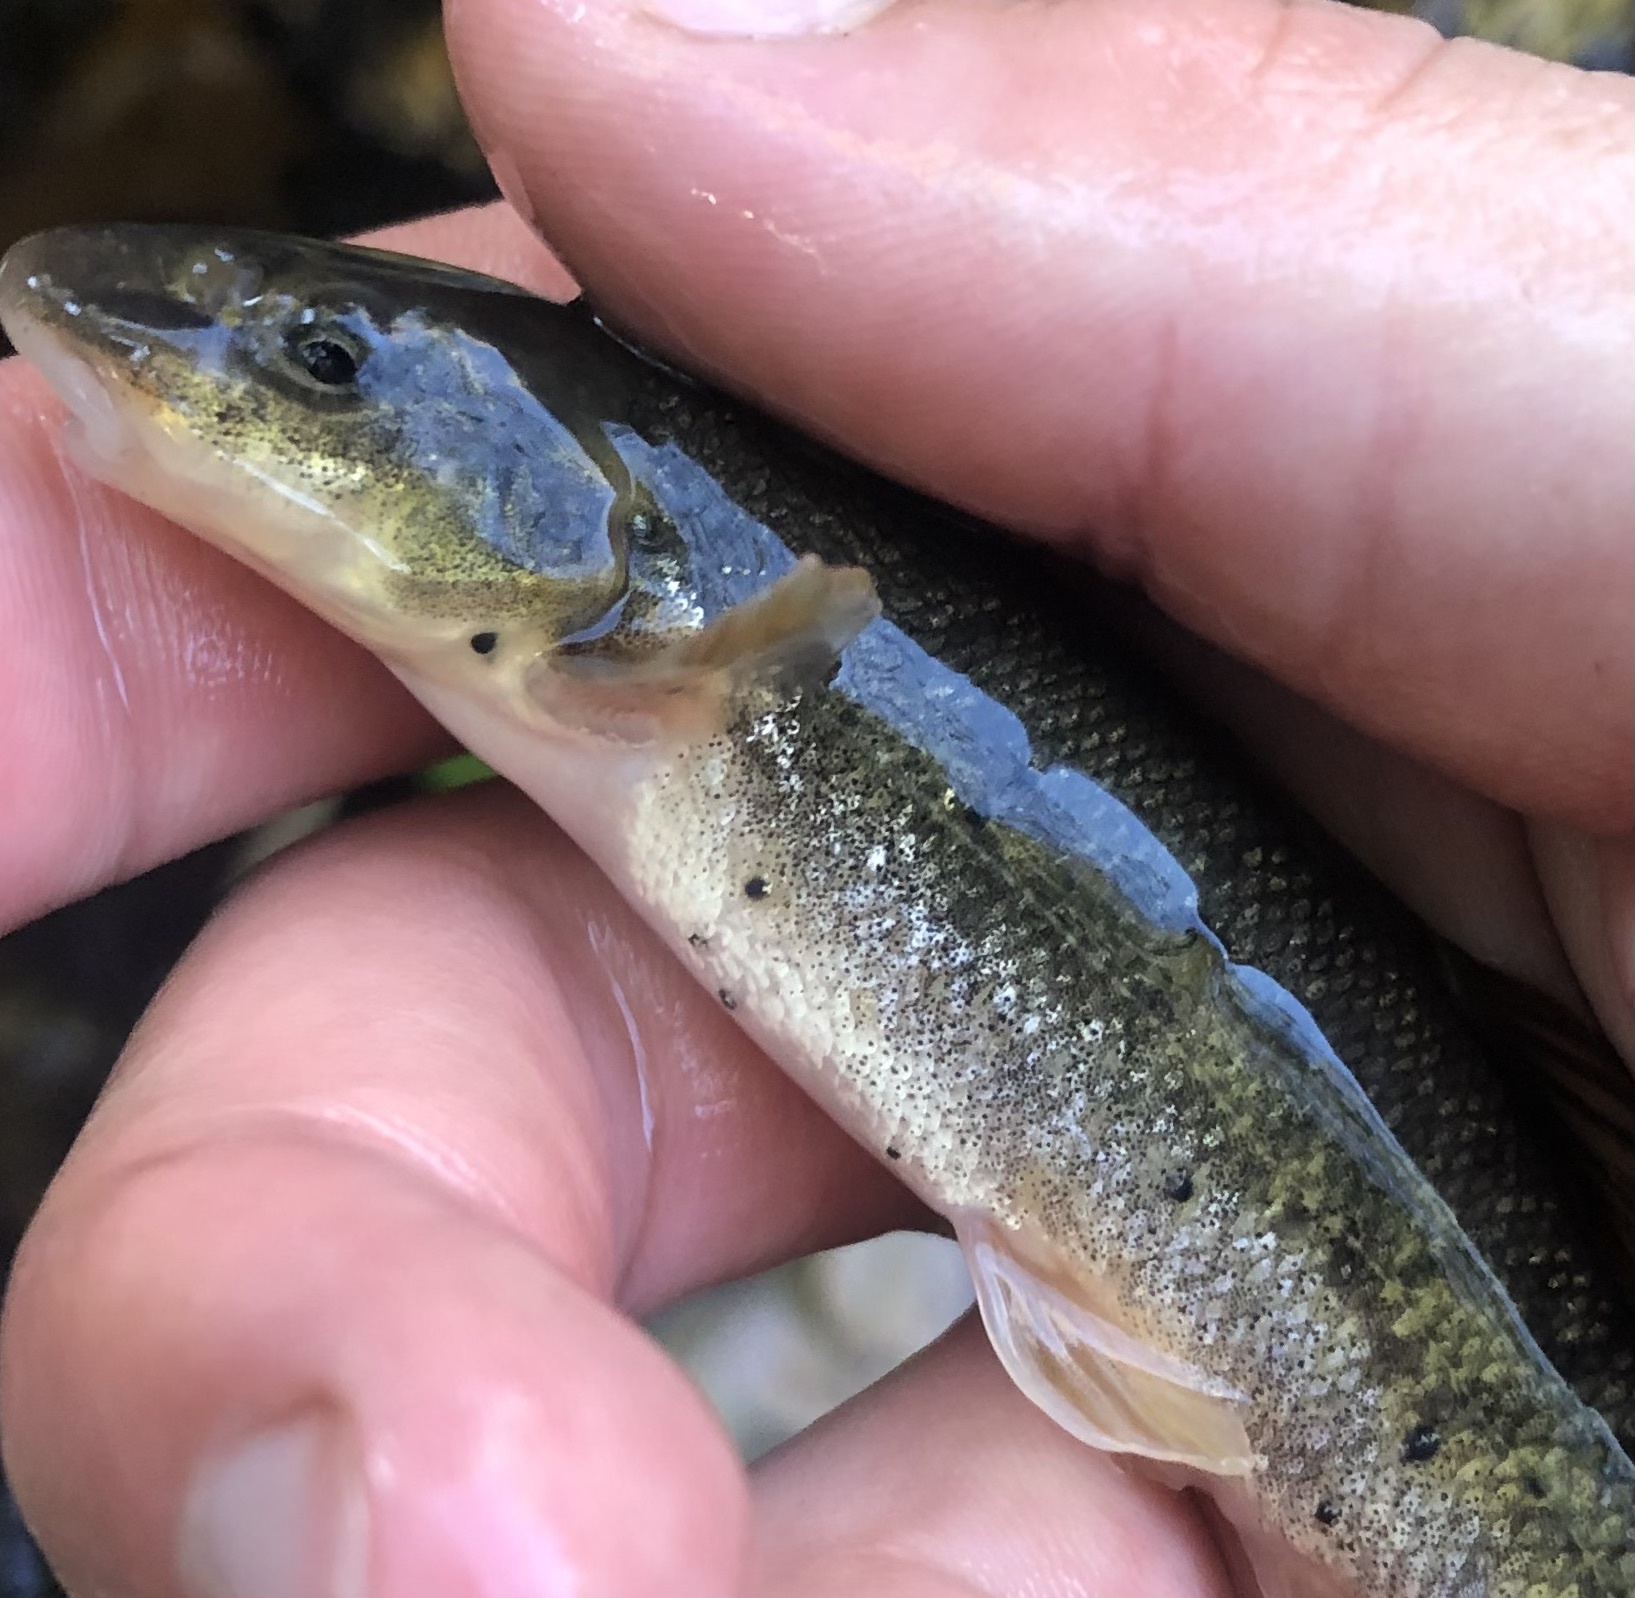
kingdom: Animalia
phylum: Platyhelminthes
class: Trematoda
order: Diplostomida
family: Diplostomidae
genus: Neascus
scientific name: Neascus
